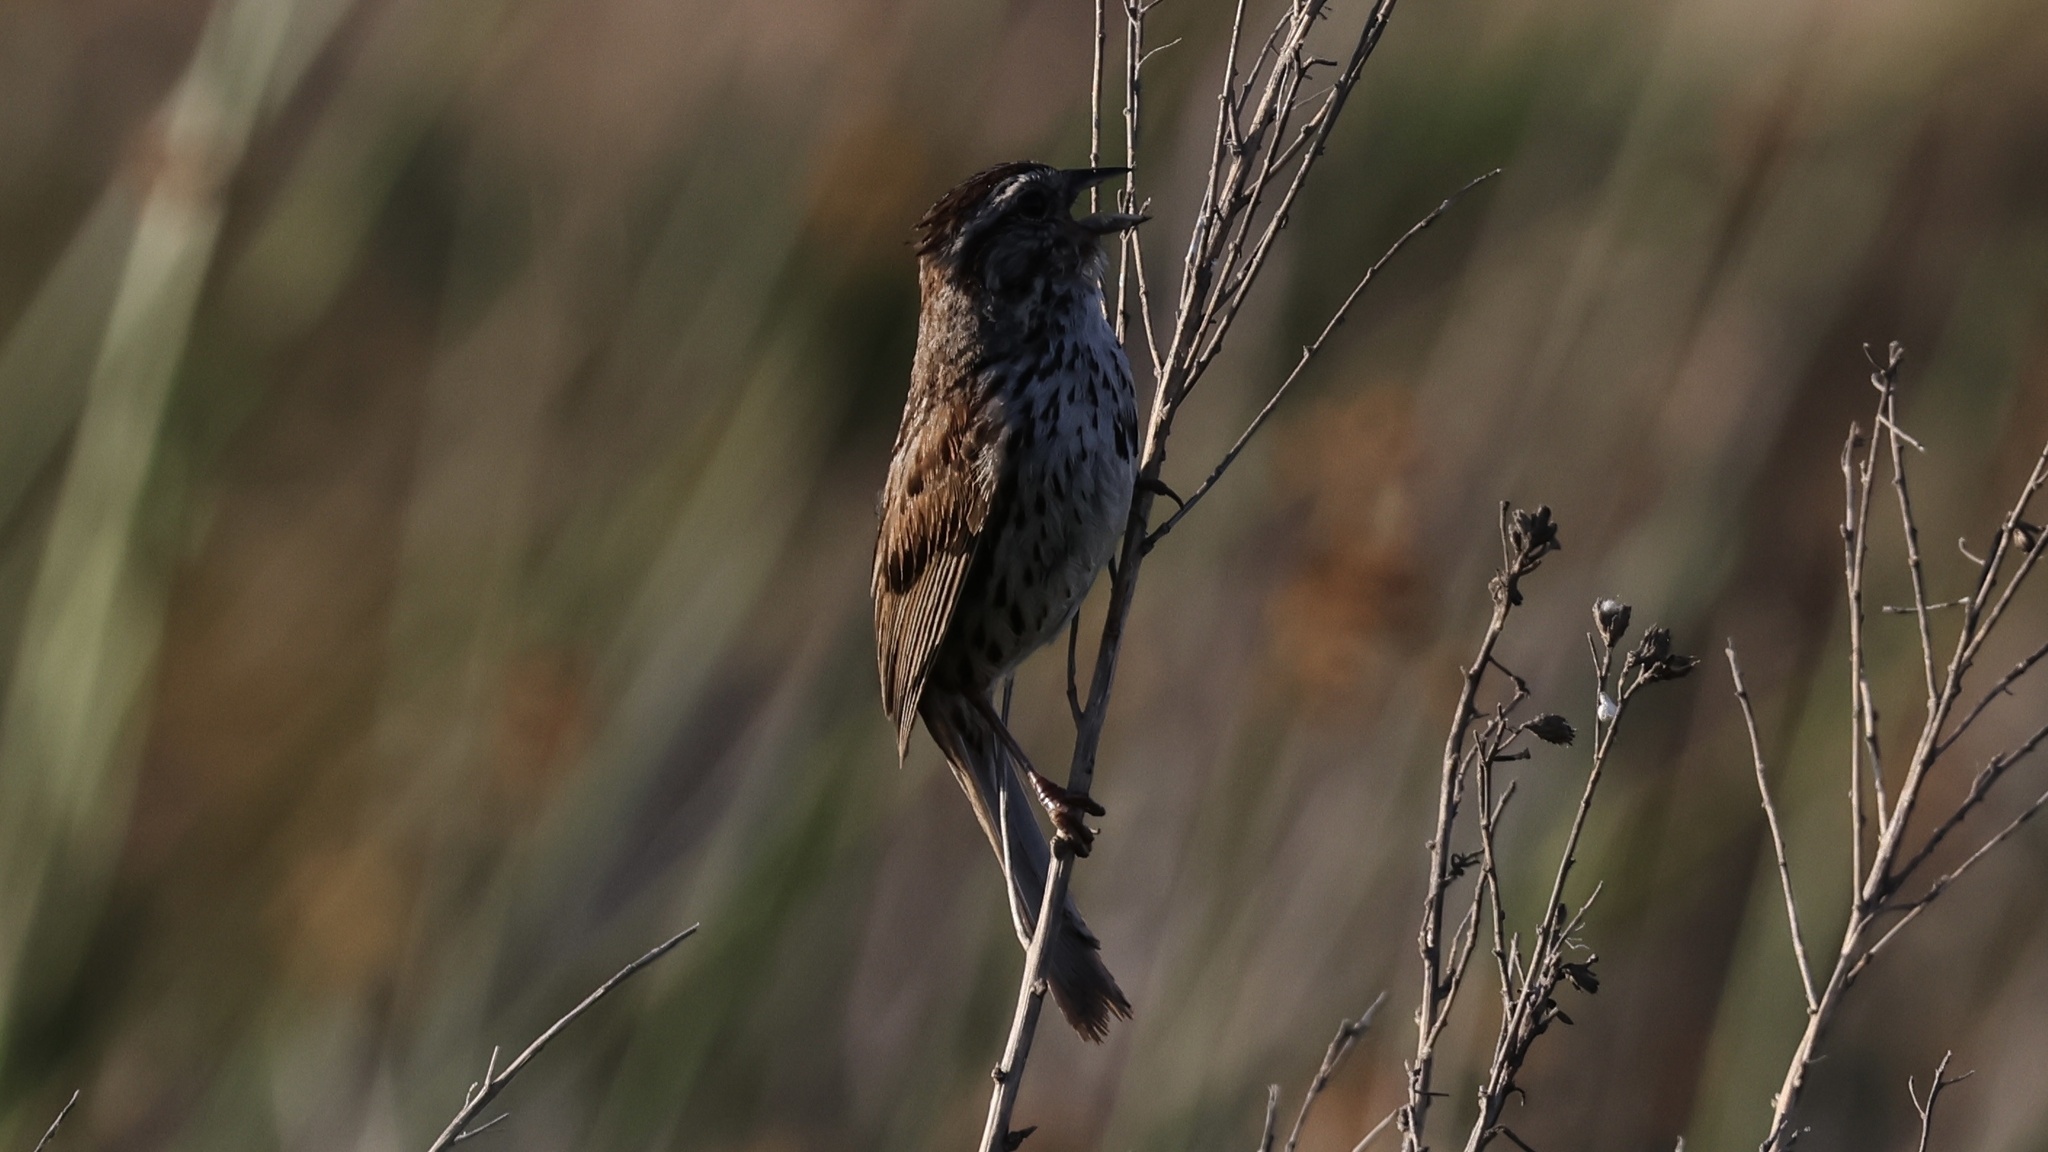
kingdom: Animalia
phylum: Chordata
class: Aves
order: Passeriformes
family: Passerellidae
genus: Melospiza
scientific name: Melospiza melodia
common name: Song sparrow
